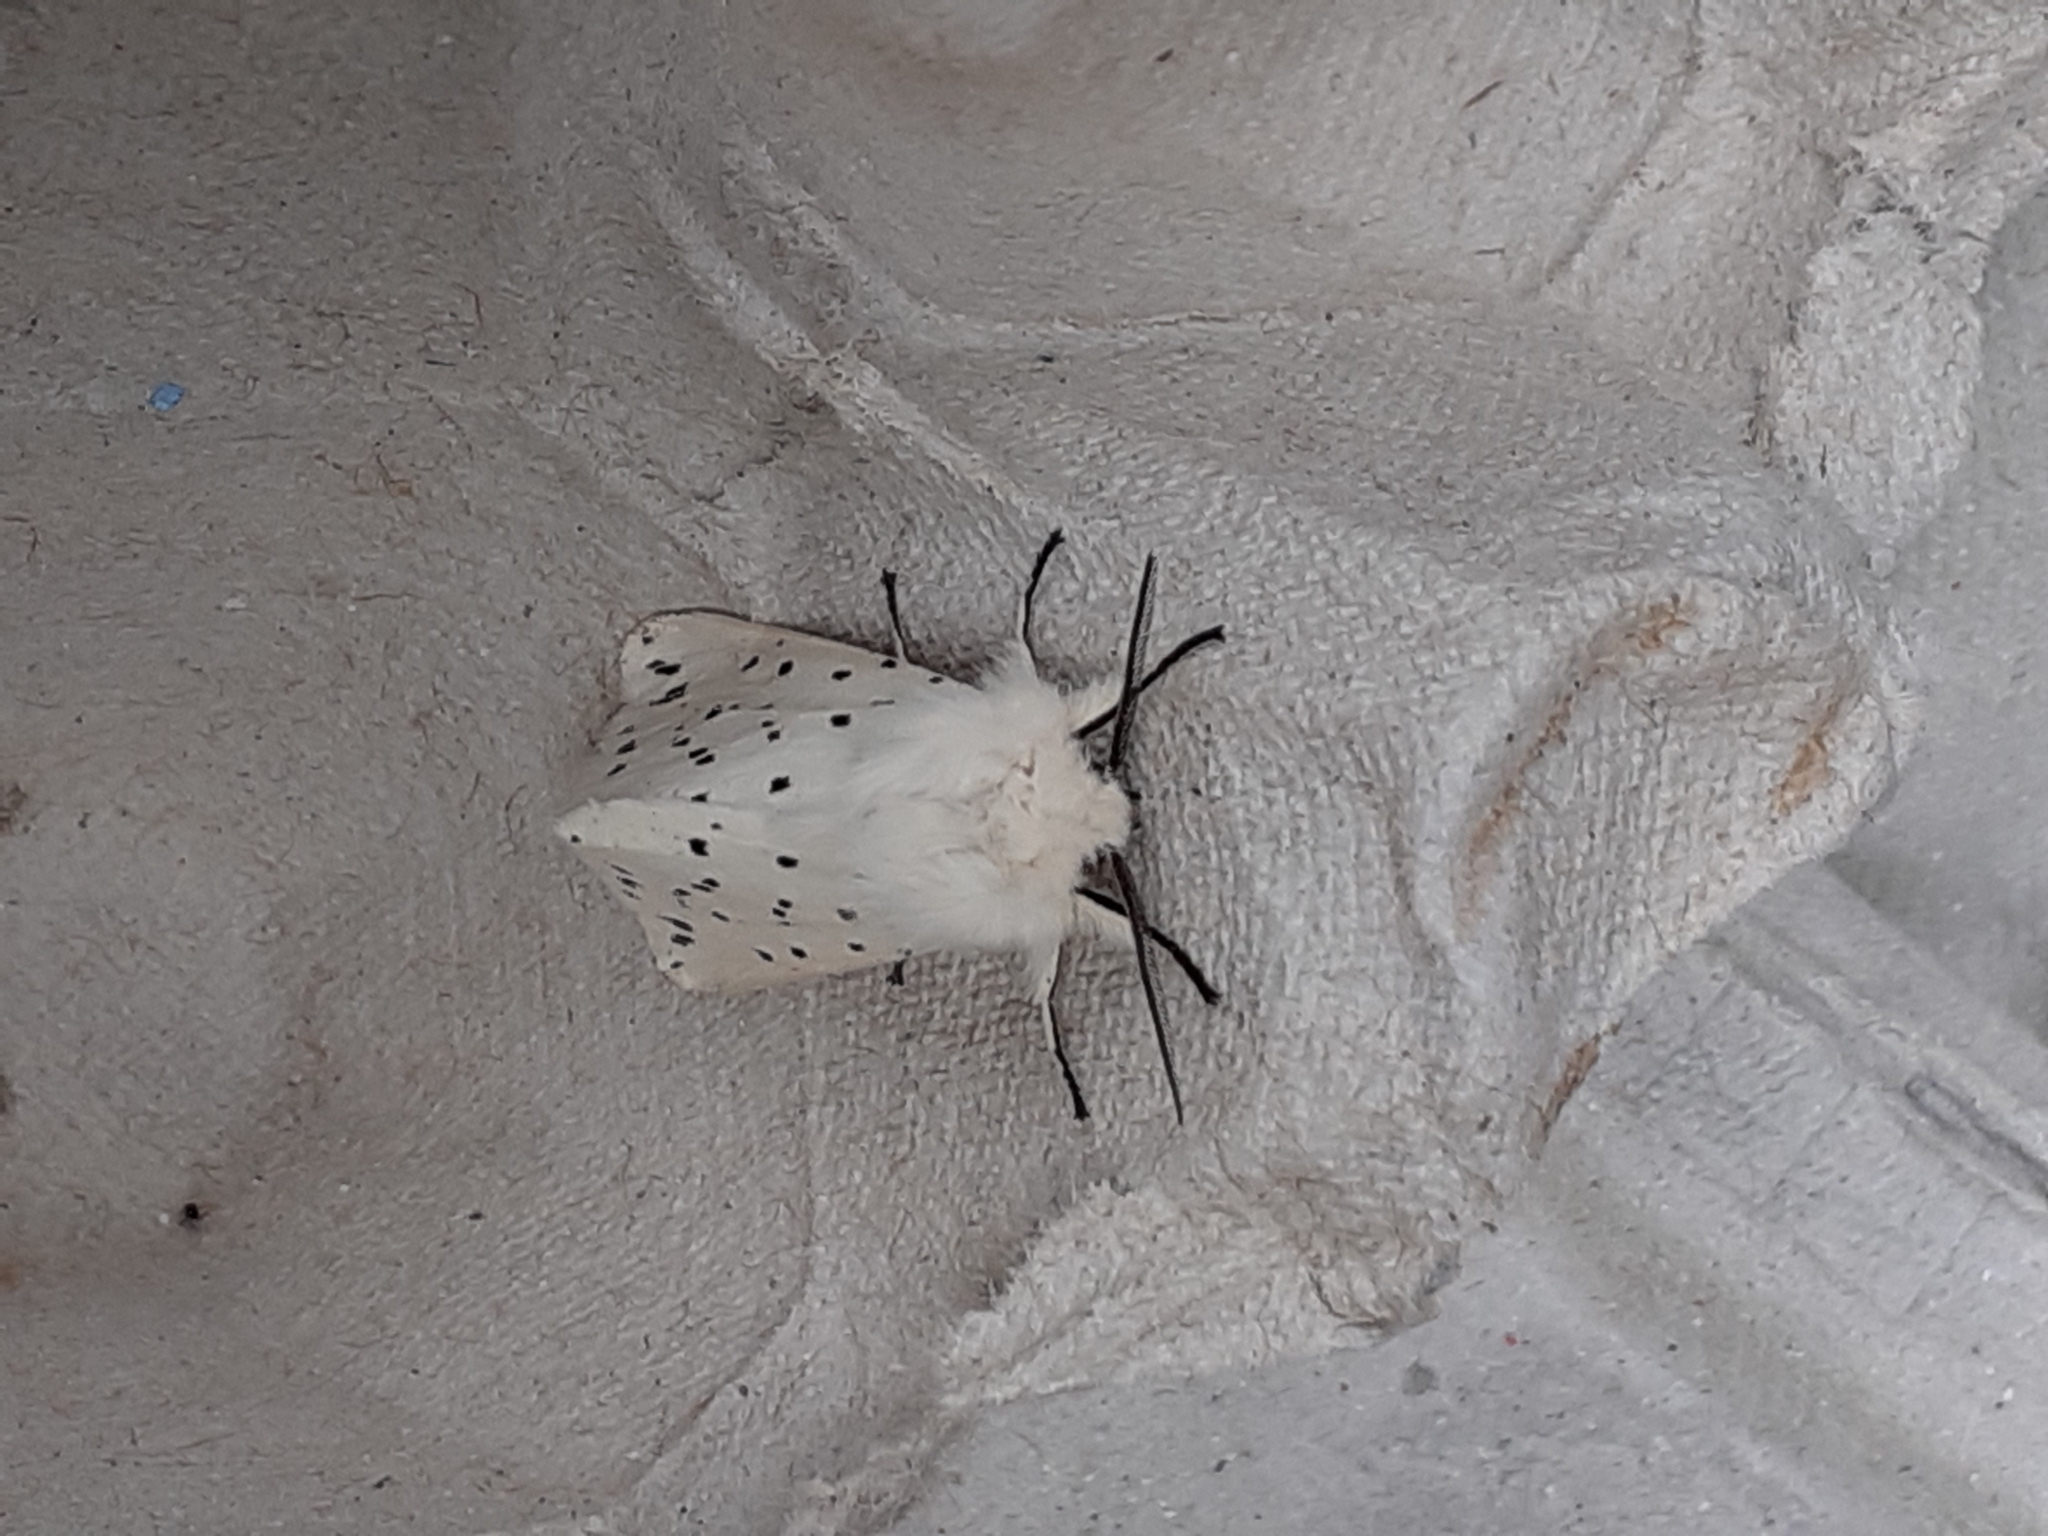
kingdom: Animalia
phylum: Arthropoda
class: Insecta
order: Lepidoptera
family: Erebidae
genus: Spilosoma
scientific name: Spilosoma lubricipeda
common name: White ermine
